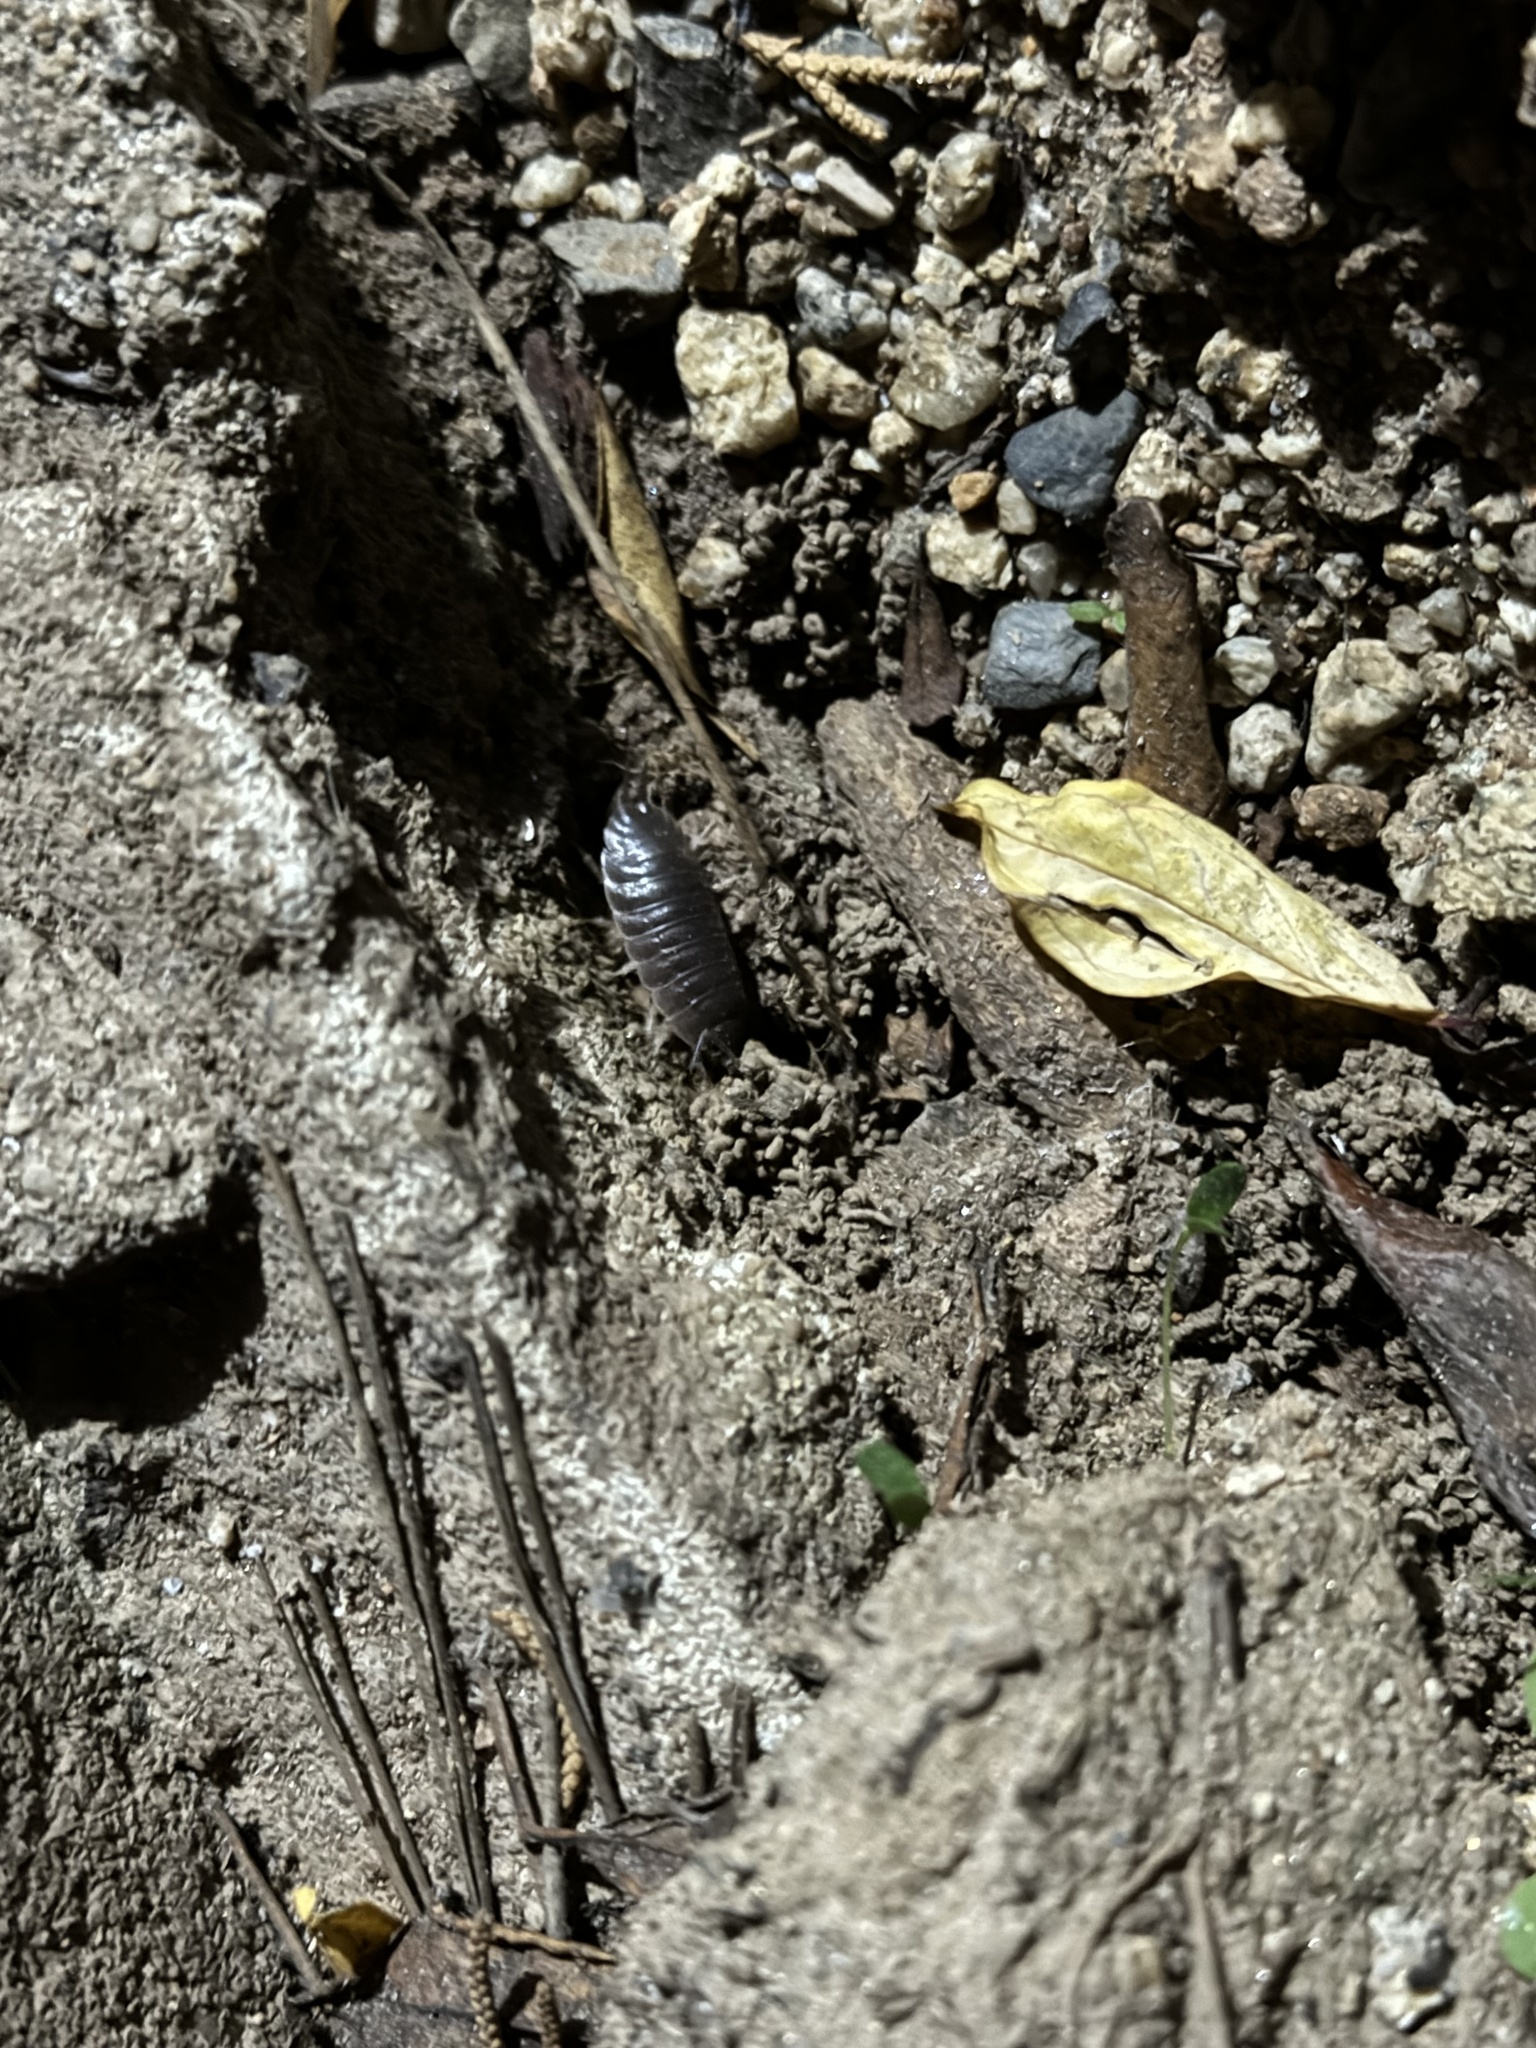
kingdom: Animalia
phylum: Arthropoda
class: Malacostraca
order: Isopoda
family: Porcellionidae
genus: Porcellio
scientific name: Porcellio laevis
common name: Swift woodlouse
